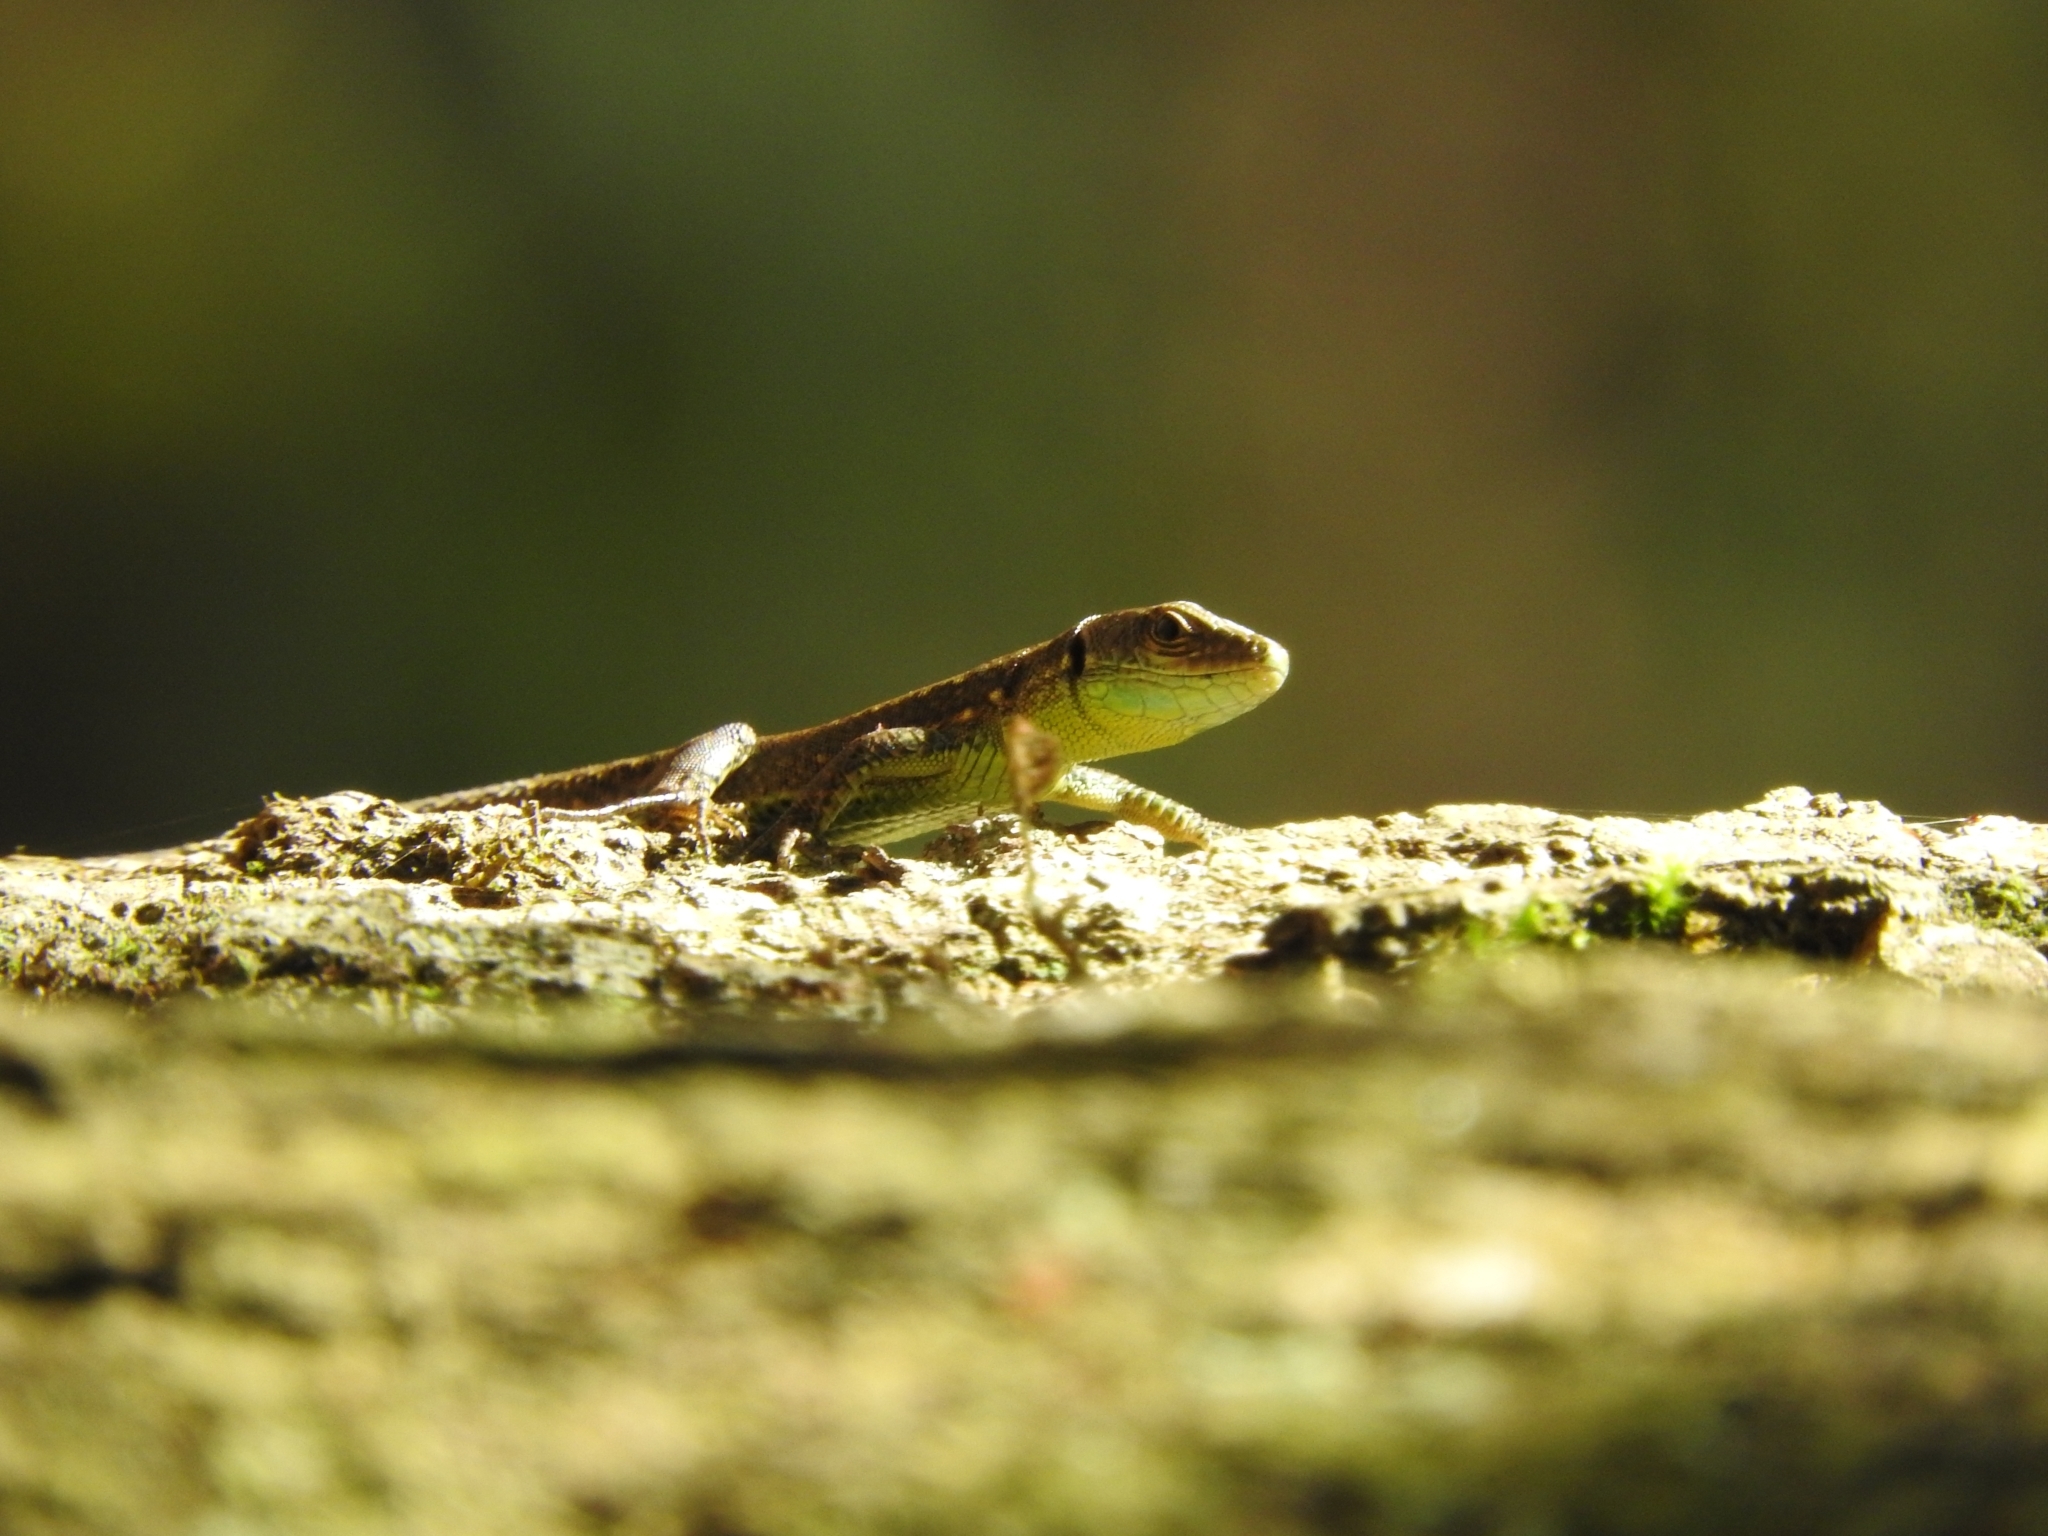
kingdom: Animalia
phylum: Chordata
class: Squamata
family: Lacertidae
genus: Darevskia
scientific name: Darevskia chlorogaster
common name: Green-bellied lizard
